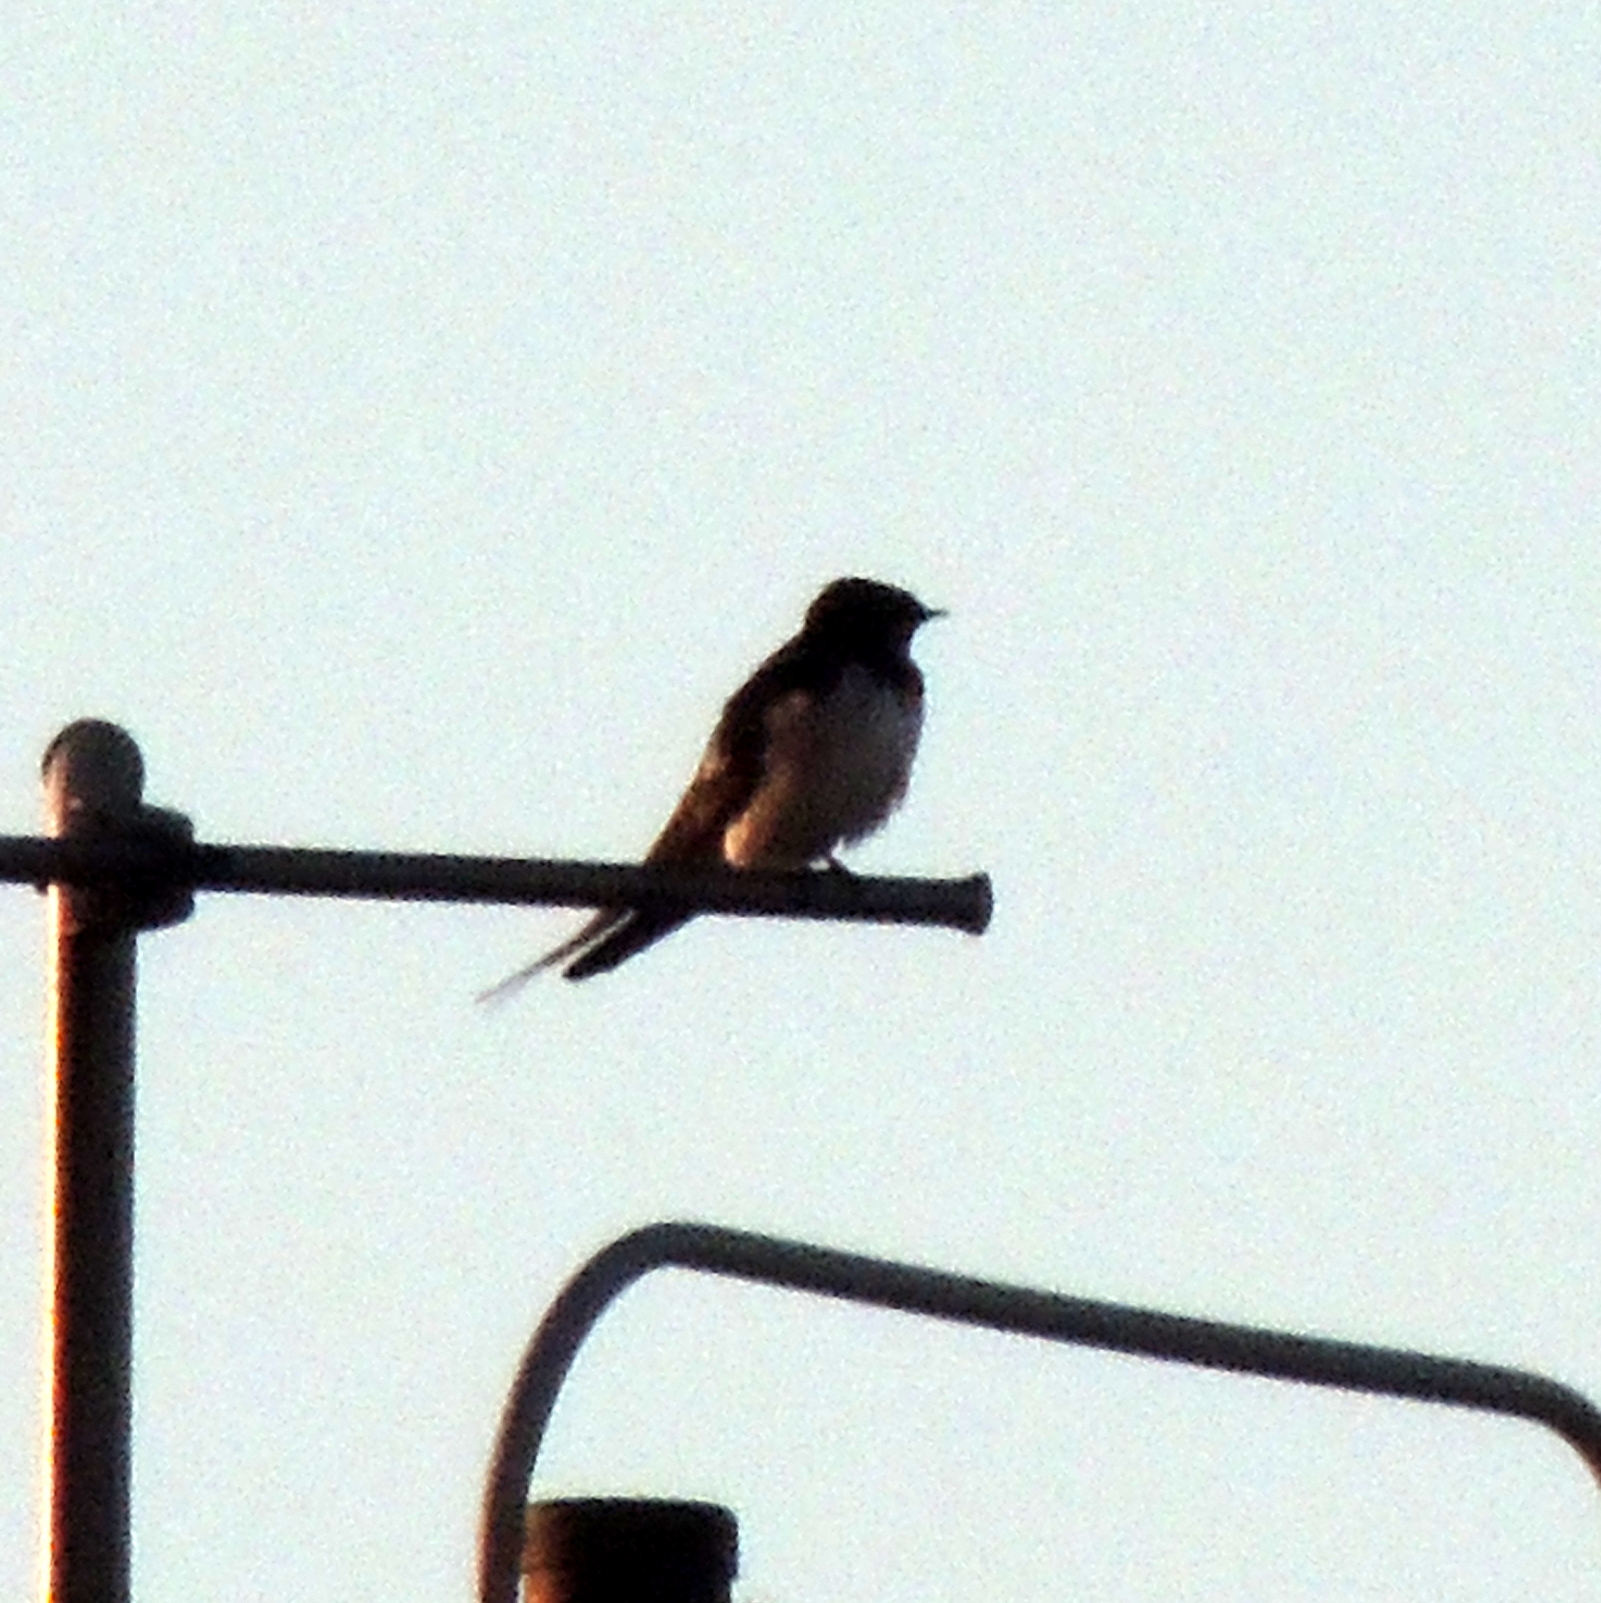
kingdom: Animalia
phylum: Chordata
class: Aves
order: Passeriformes
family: Hirundinidae
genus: Hirundo
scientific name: Hirundo rustica
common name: Barn swallow
